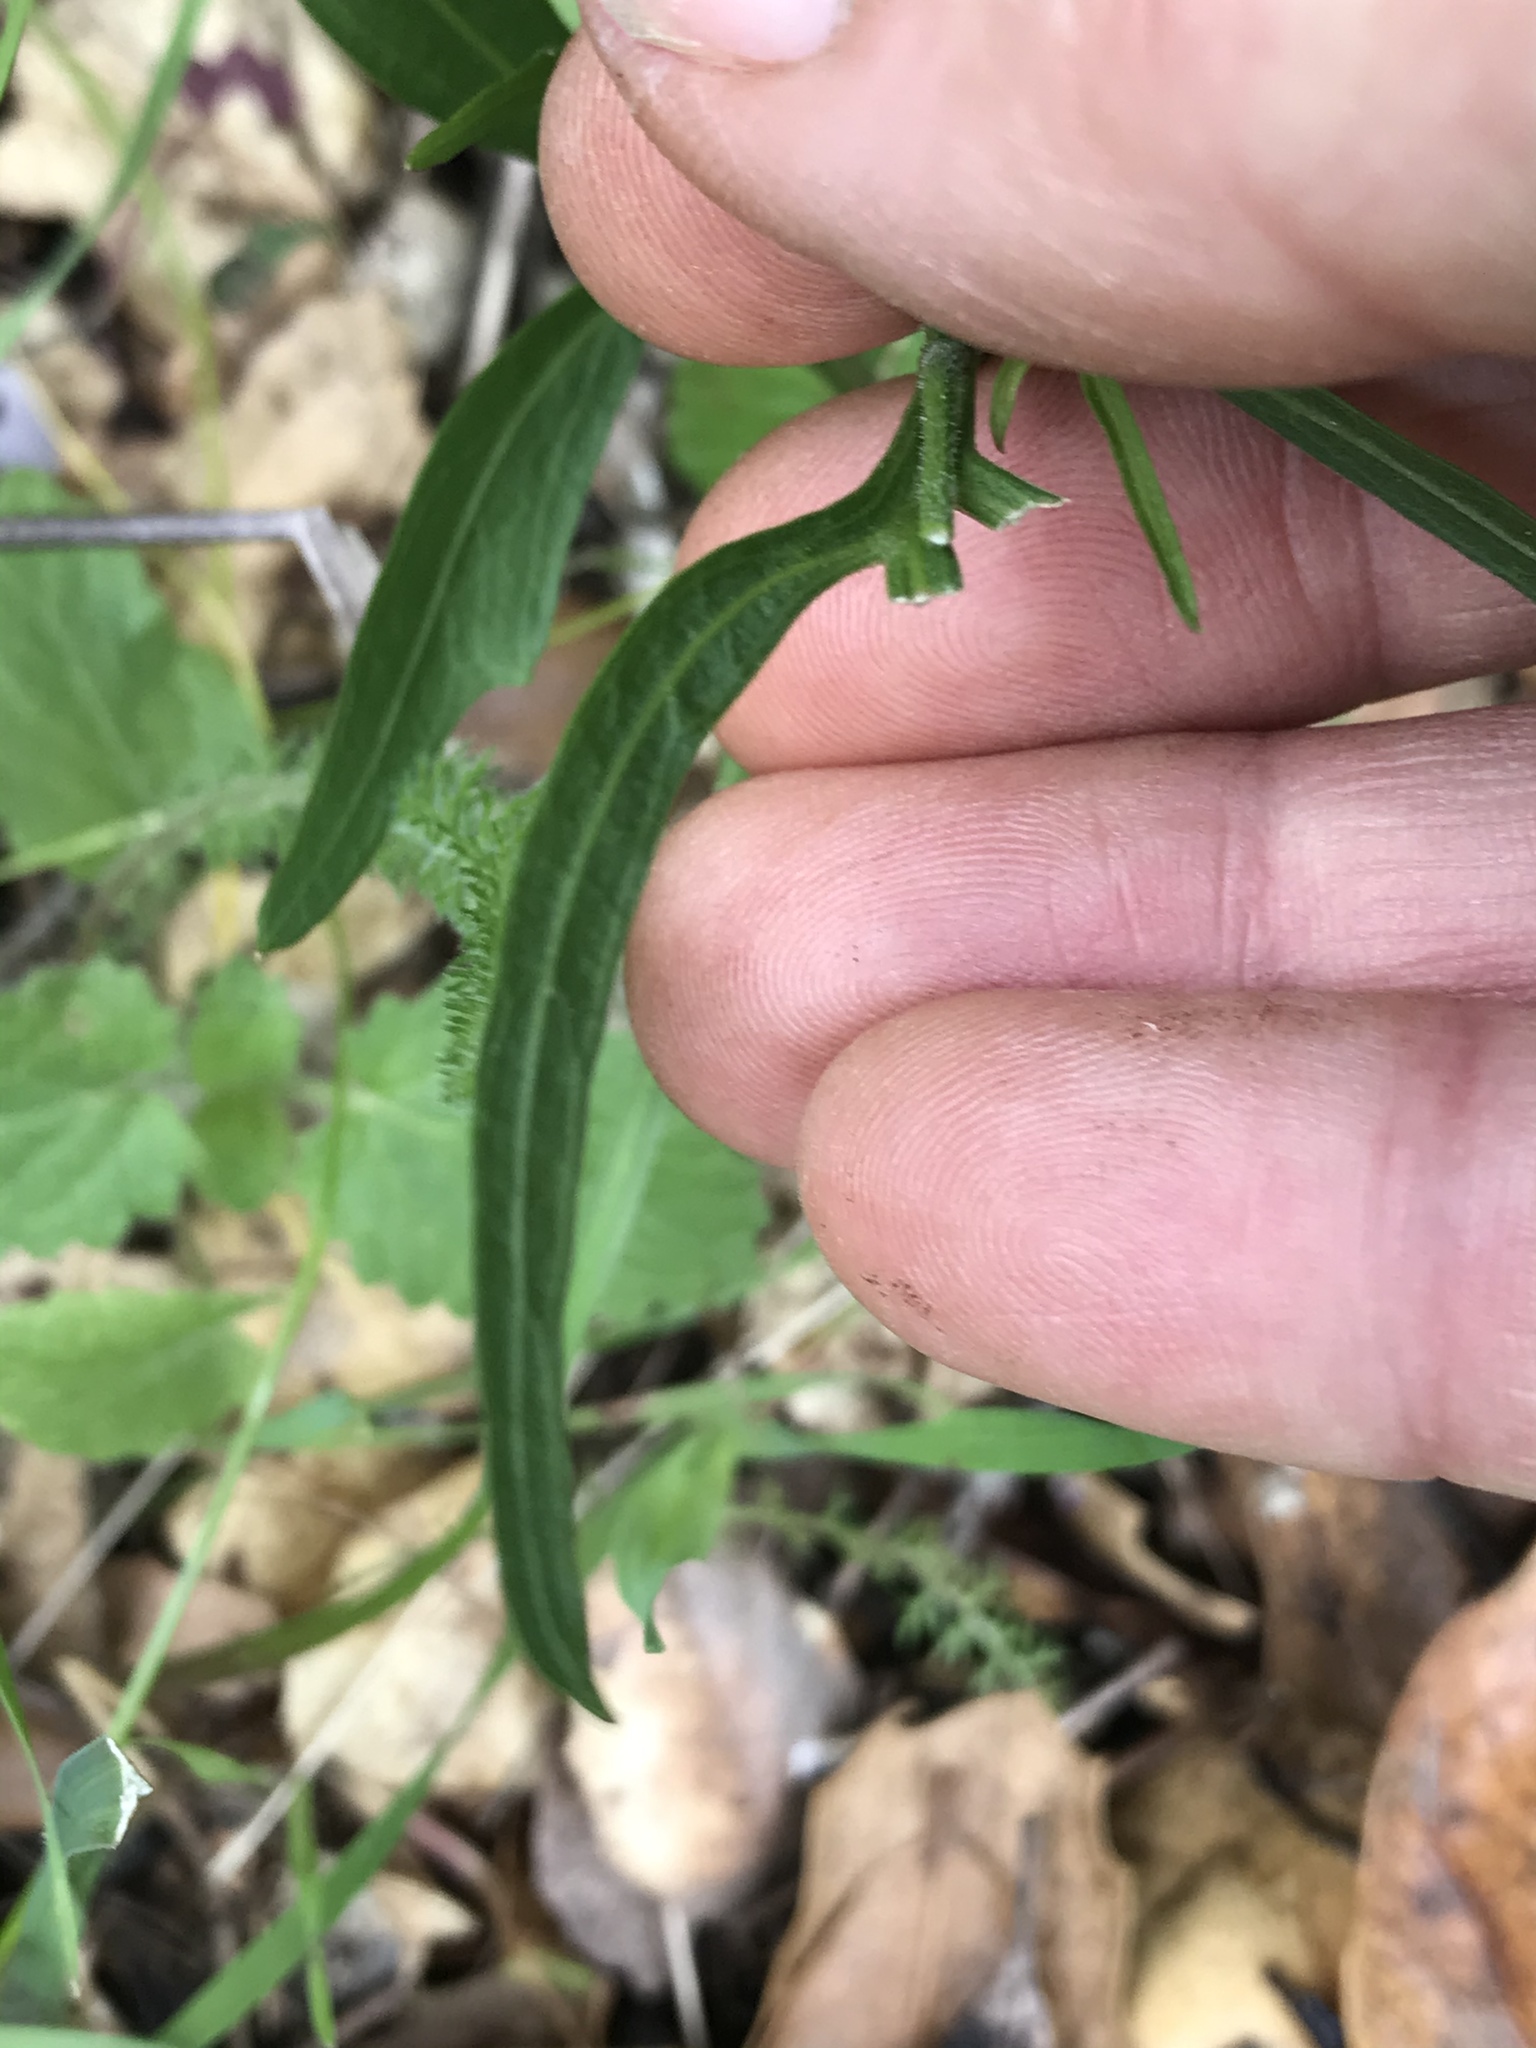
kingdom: Plantae
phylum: Tracheophyta
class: Magnoliopsida
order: Brassicales
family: Brassicaceae
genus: Cardamine
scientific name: Cardamine californica
